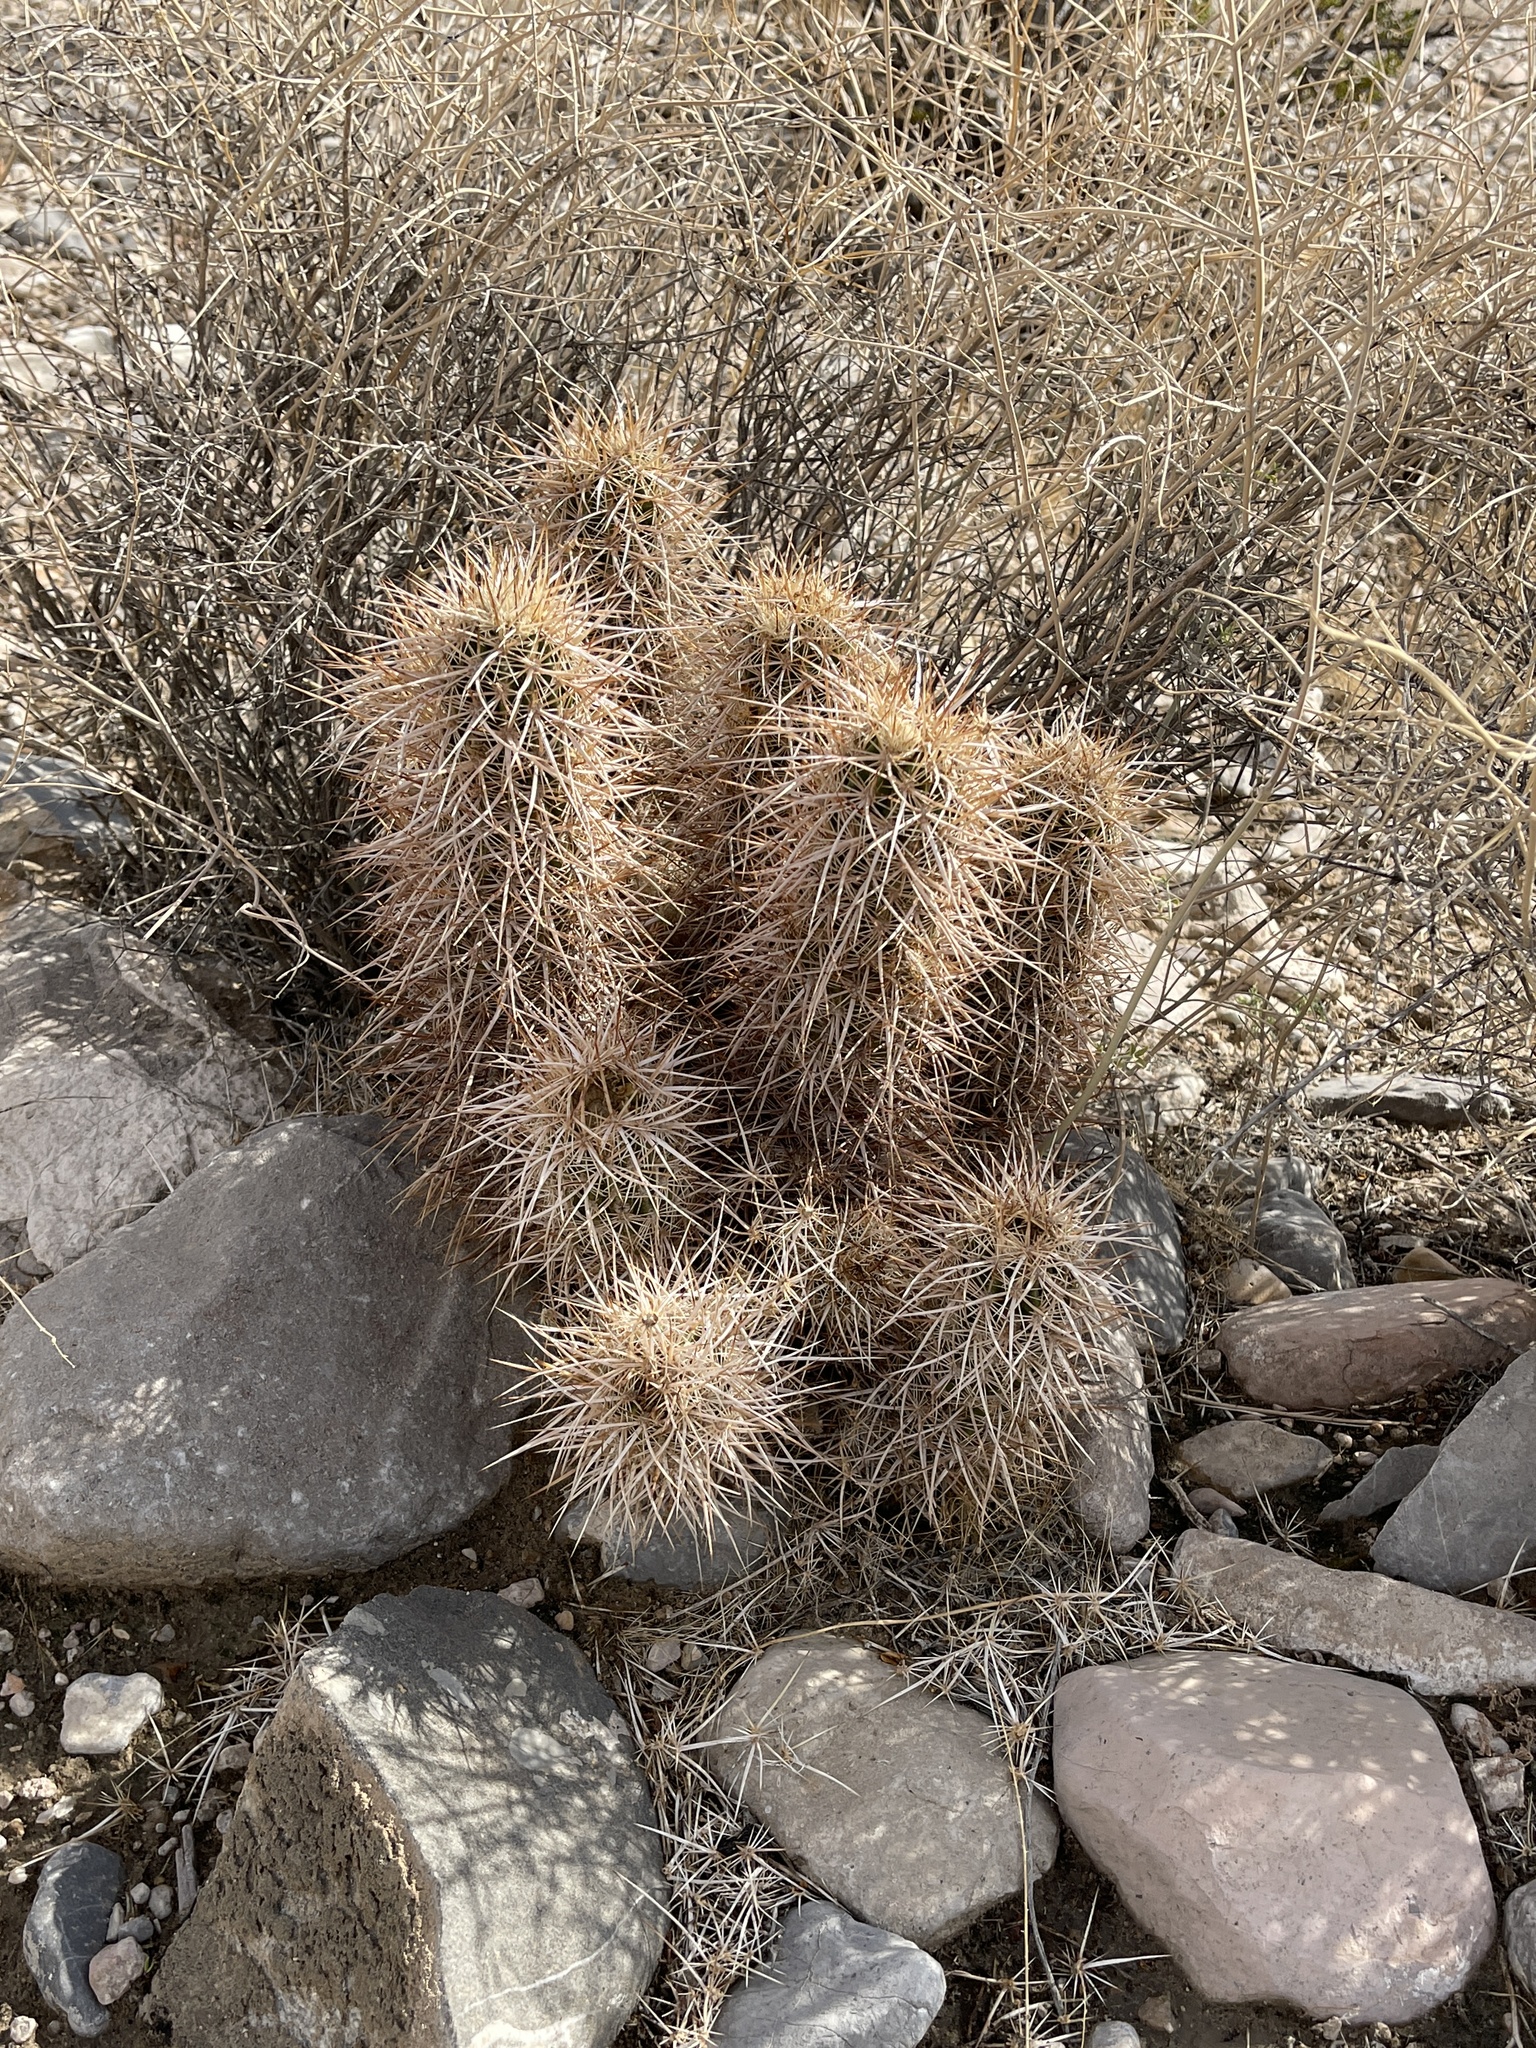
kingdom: Plantae
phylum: Tracheophyta
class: Magnoliopsida
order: Caryophyllales
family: Cactaceae
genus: Echinocereus
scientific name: Echinocereus engelmannii
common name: Engelmann's hedgehog cactus
